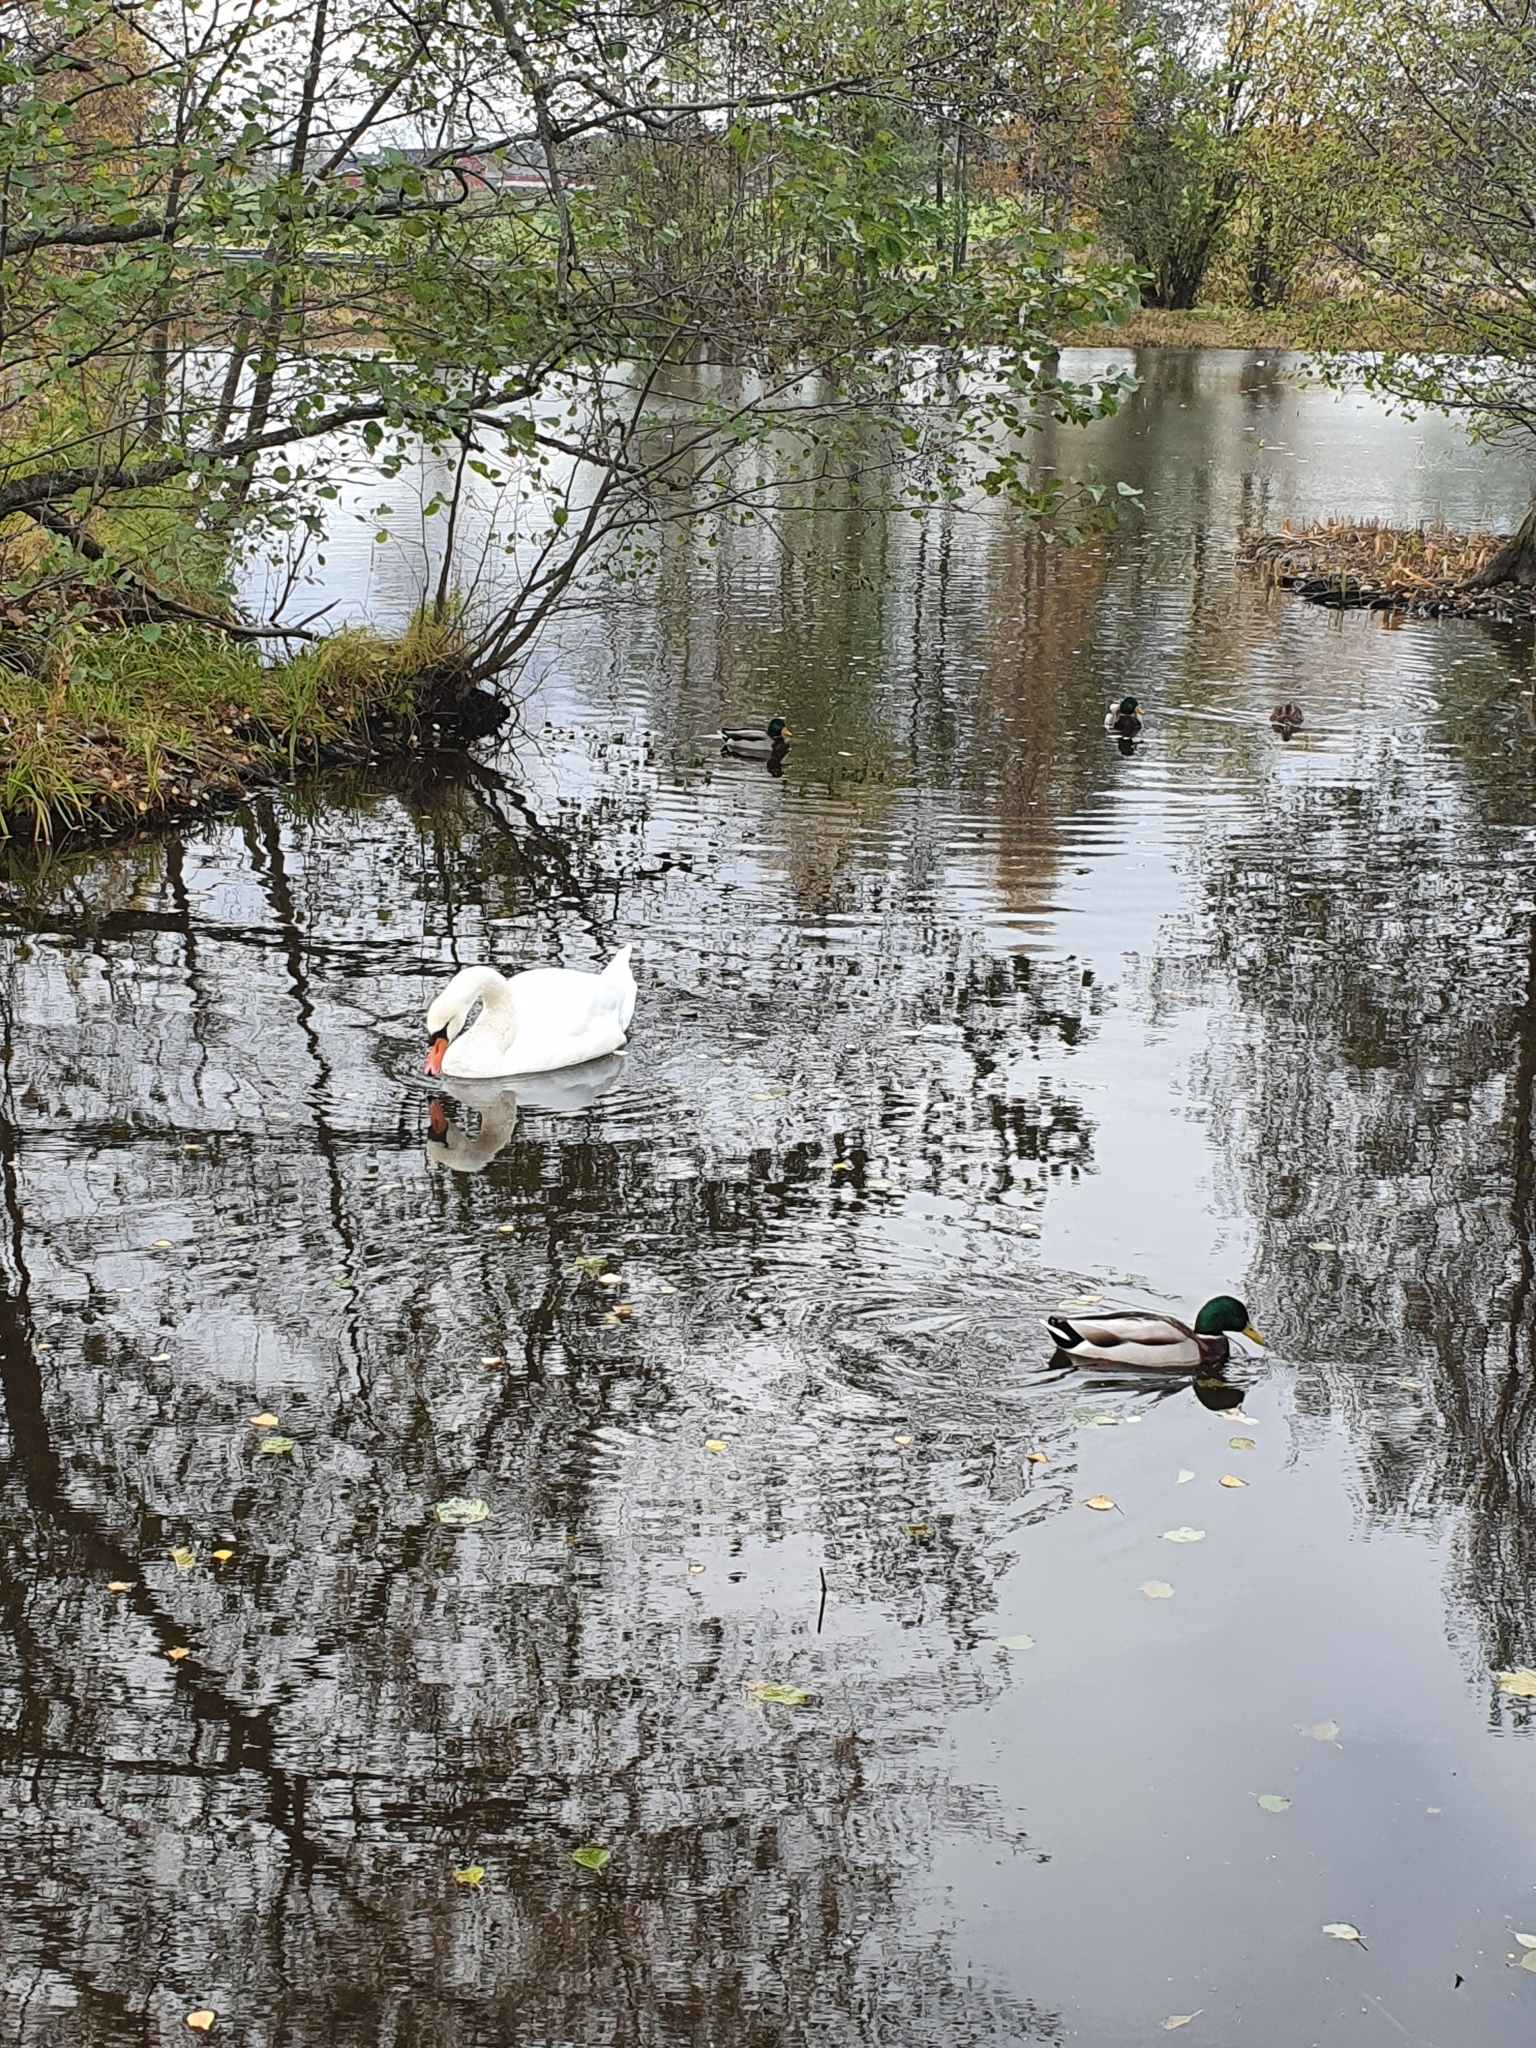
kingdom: Animalia
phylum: Chordata
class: Aves
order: Anseriformes
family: Anatidae
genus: Cygnus
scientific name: Cygnus olor
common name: Mute swan
